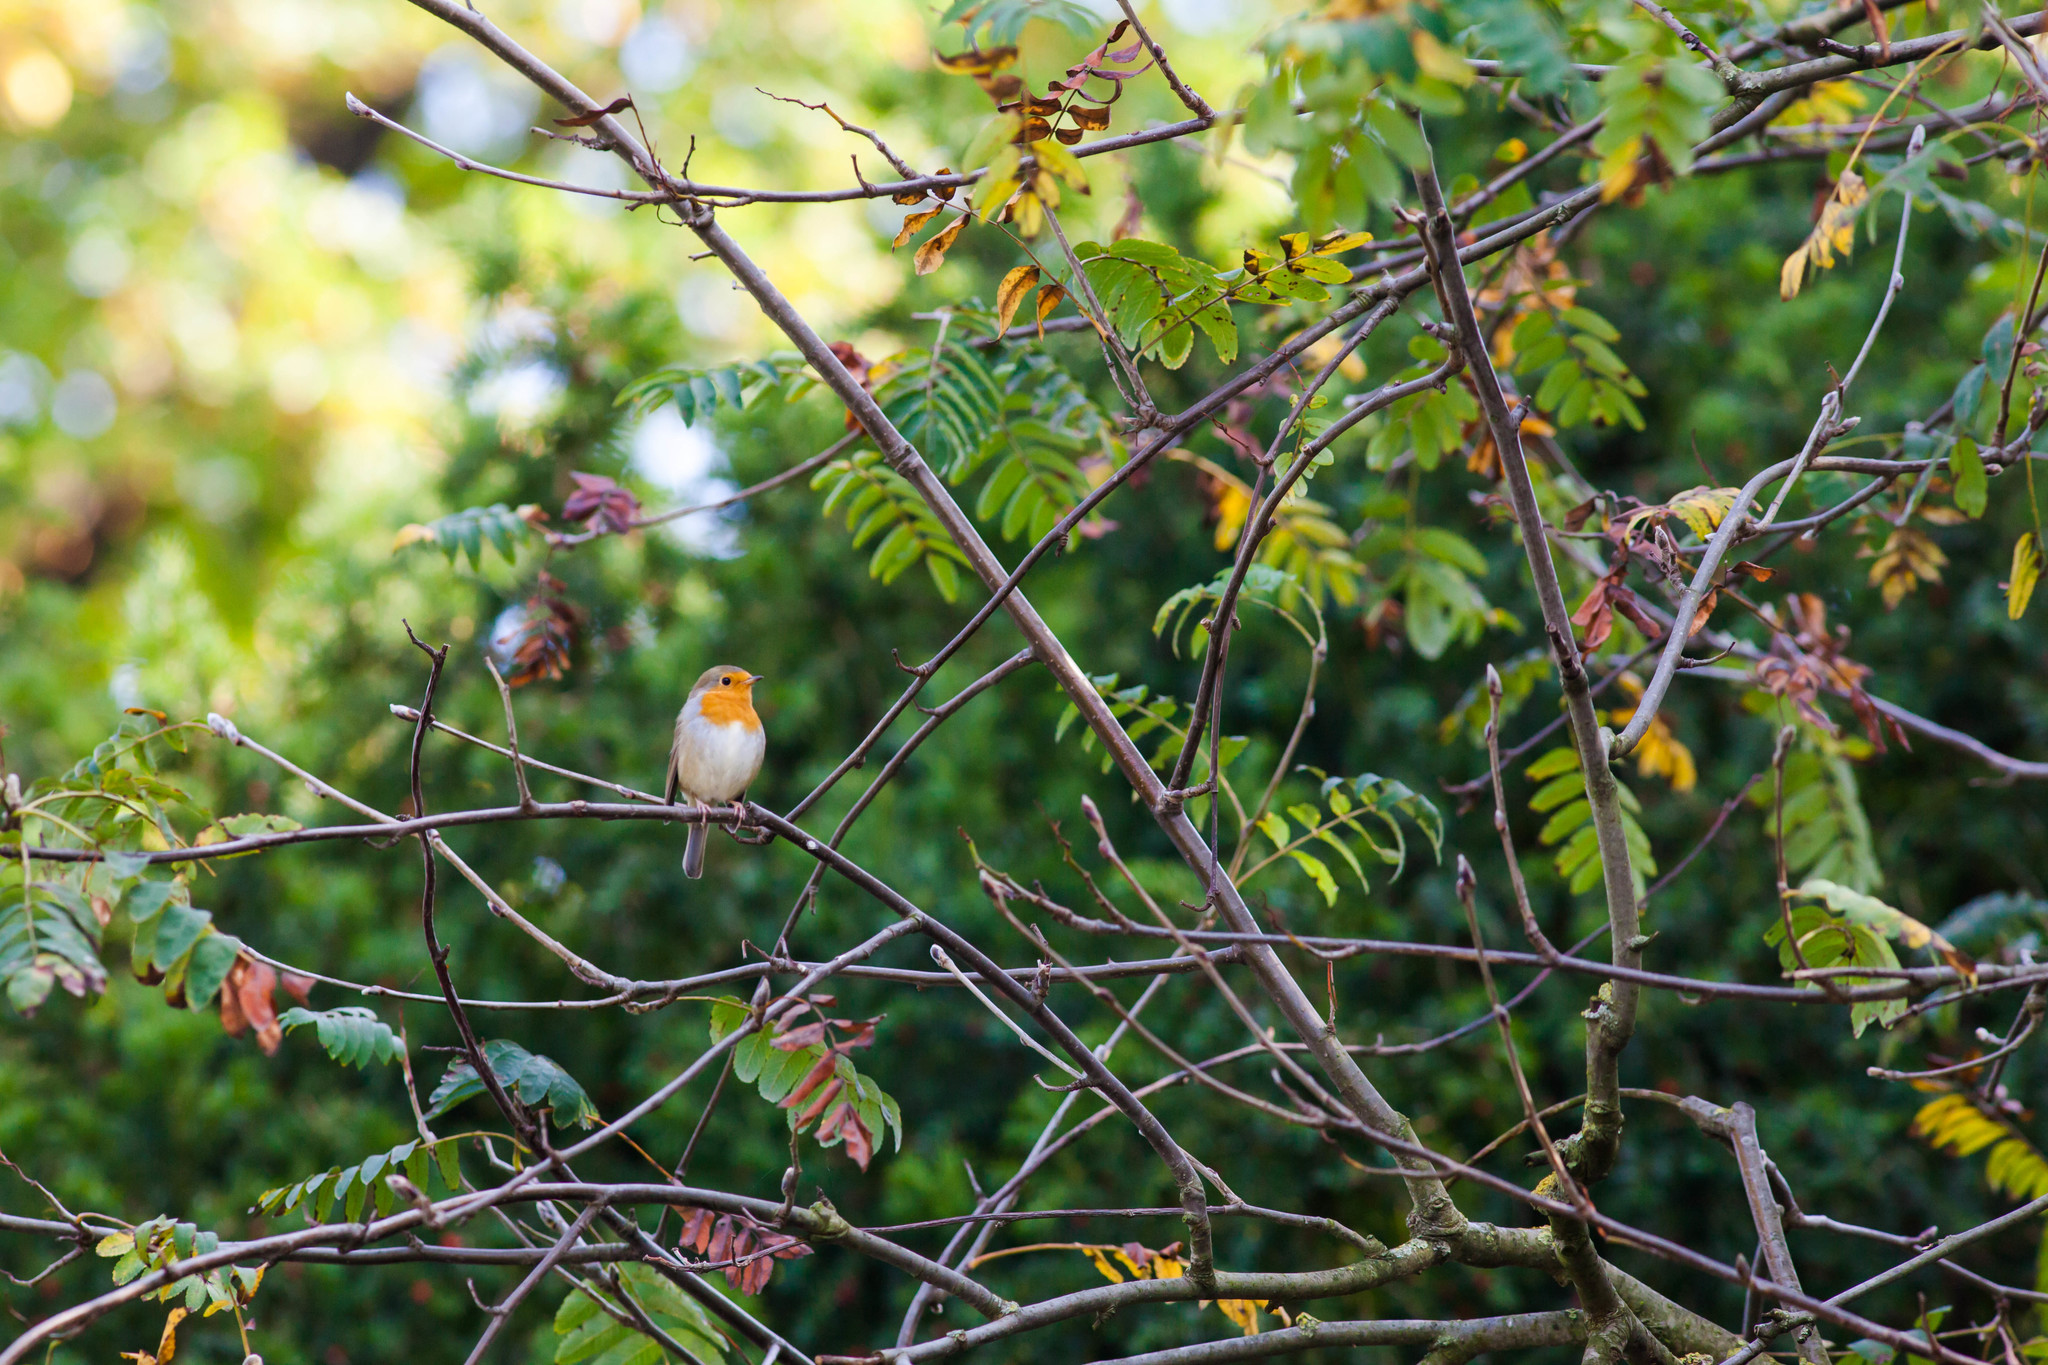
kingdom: Animalia
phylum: Chordata
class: Aves
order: Passeriformes
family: Muscicapidae
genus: Erithacus
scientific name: Erithacus rubecula
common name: European robin
